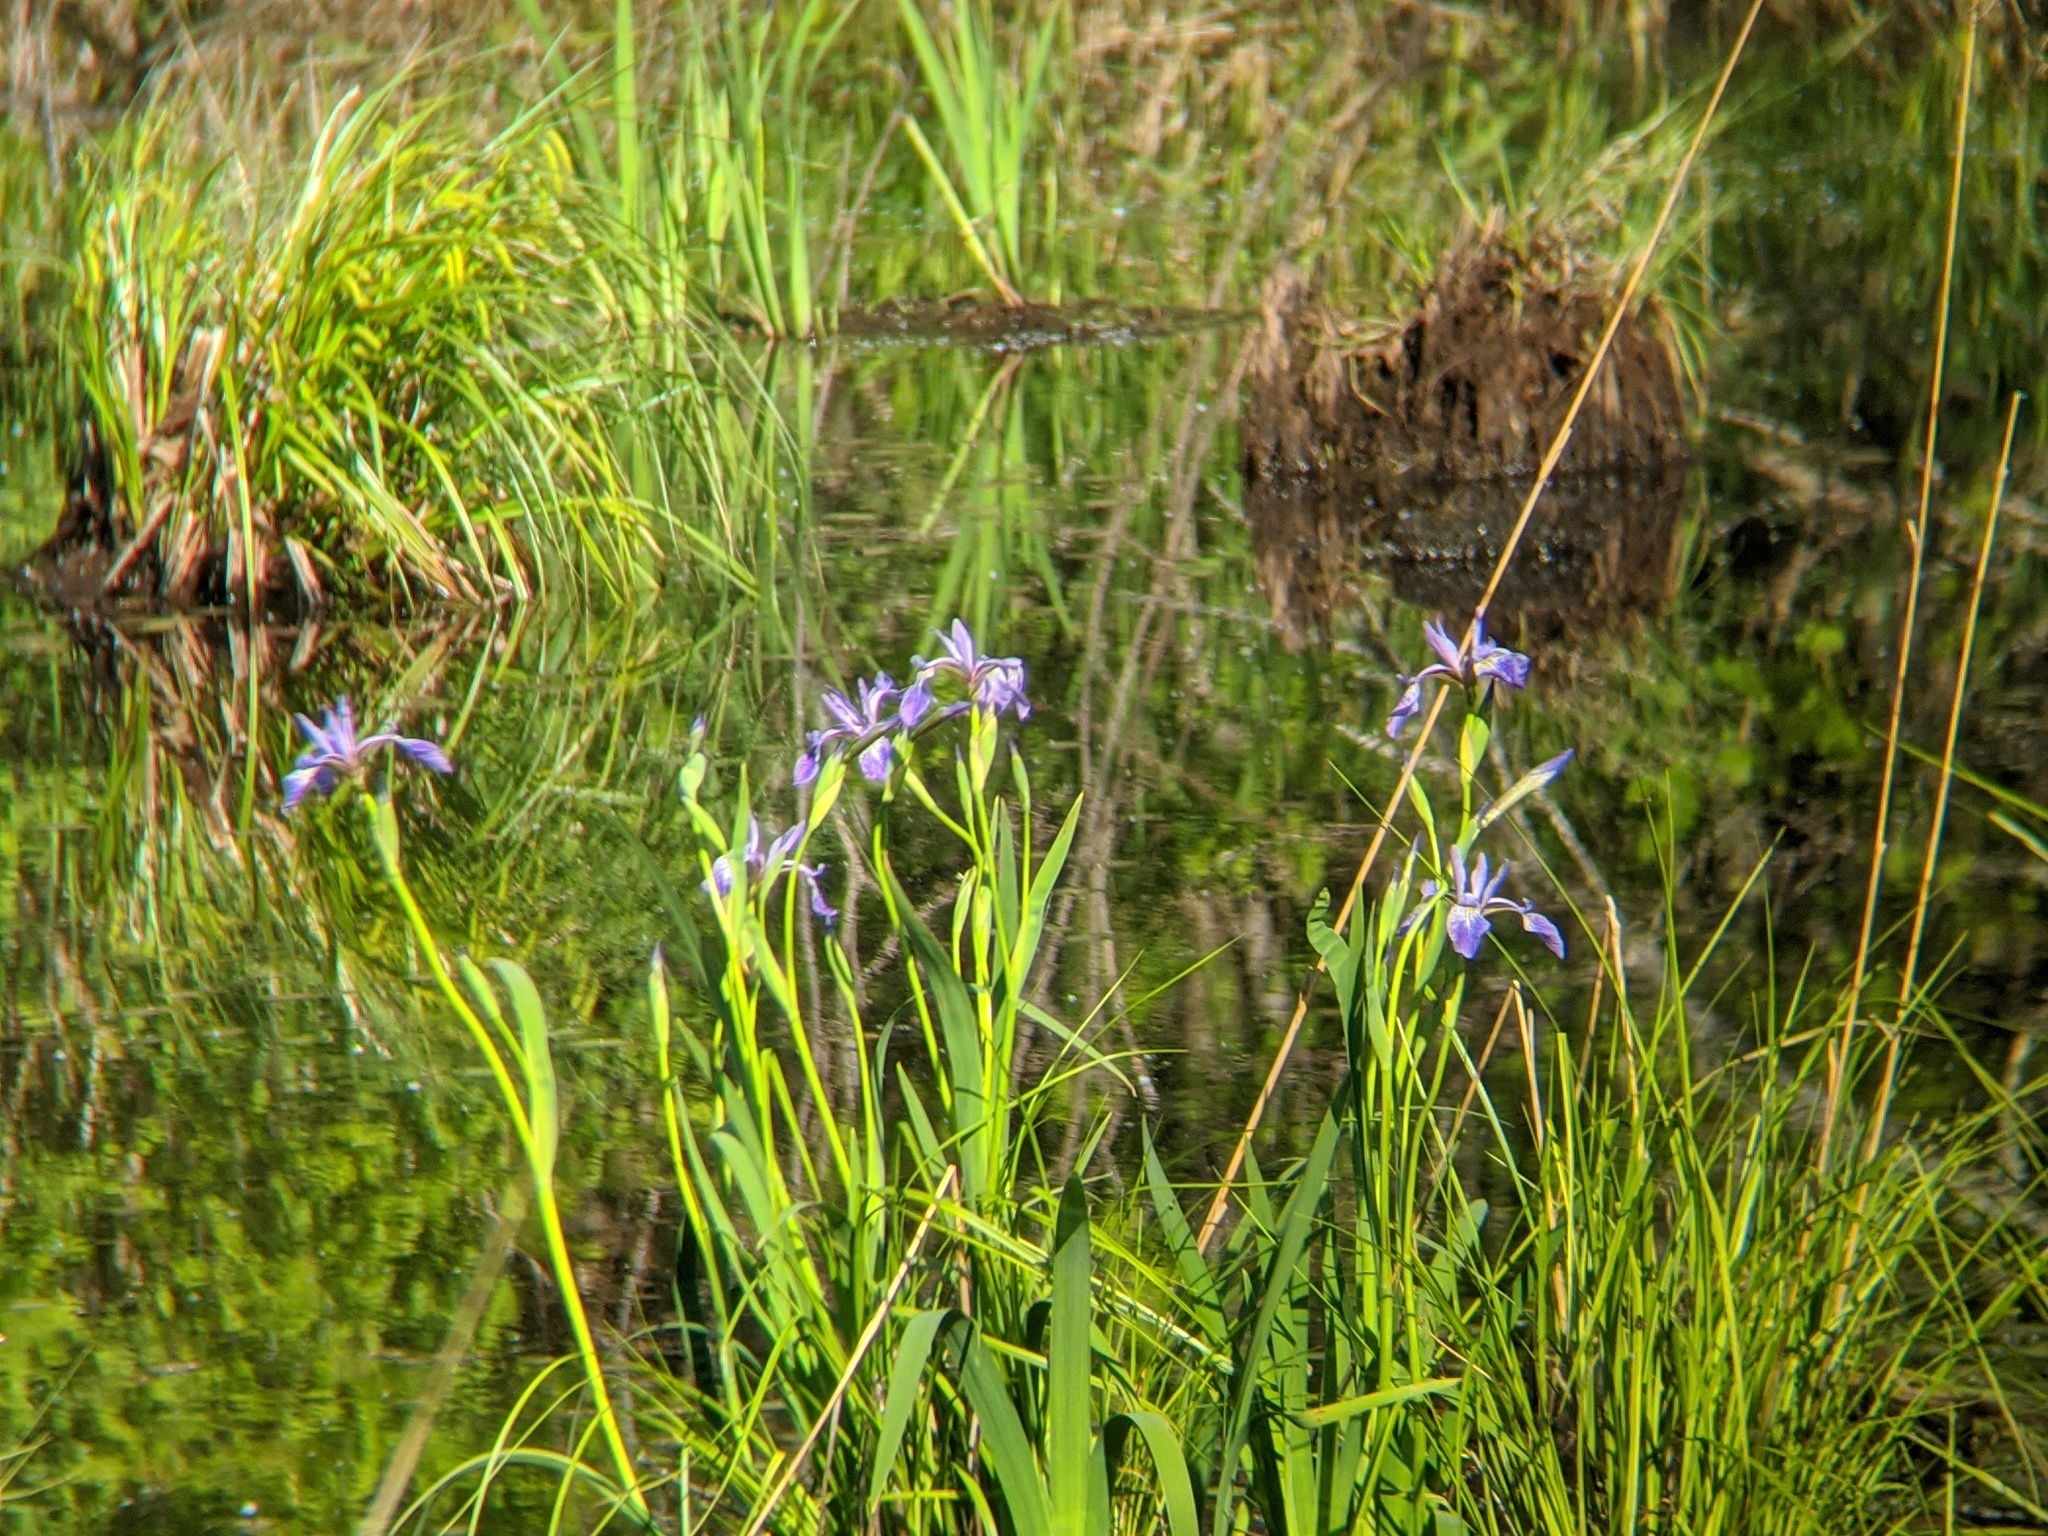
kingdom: Plantae
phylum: Tracheophyta
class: Liliopsida
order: Asparagales
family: Iridaceae
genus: Iris
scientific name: Iris versicolor
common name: Purple iris
